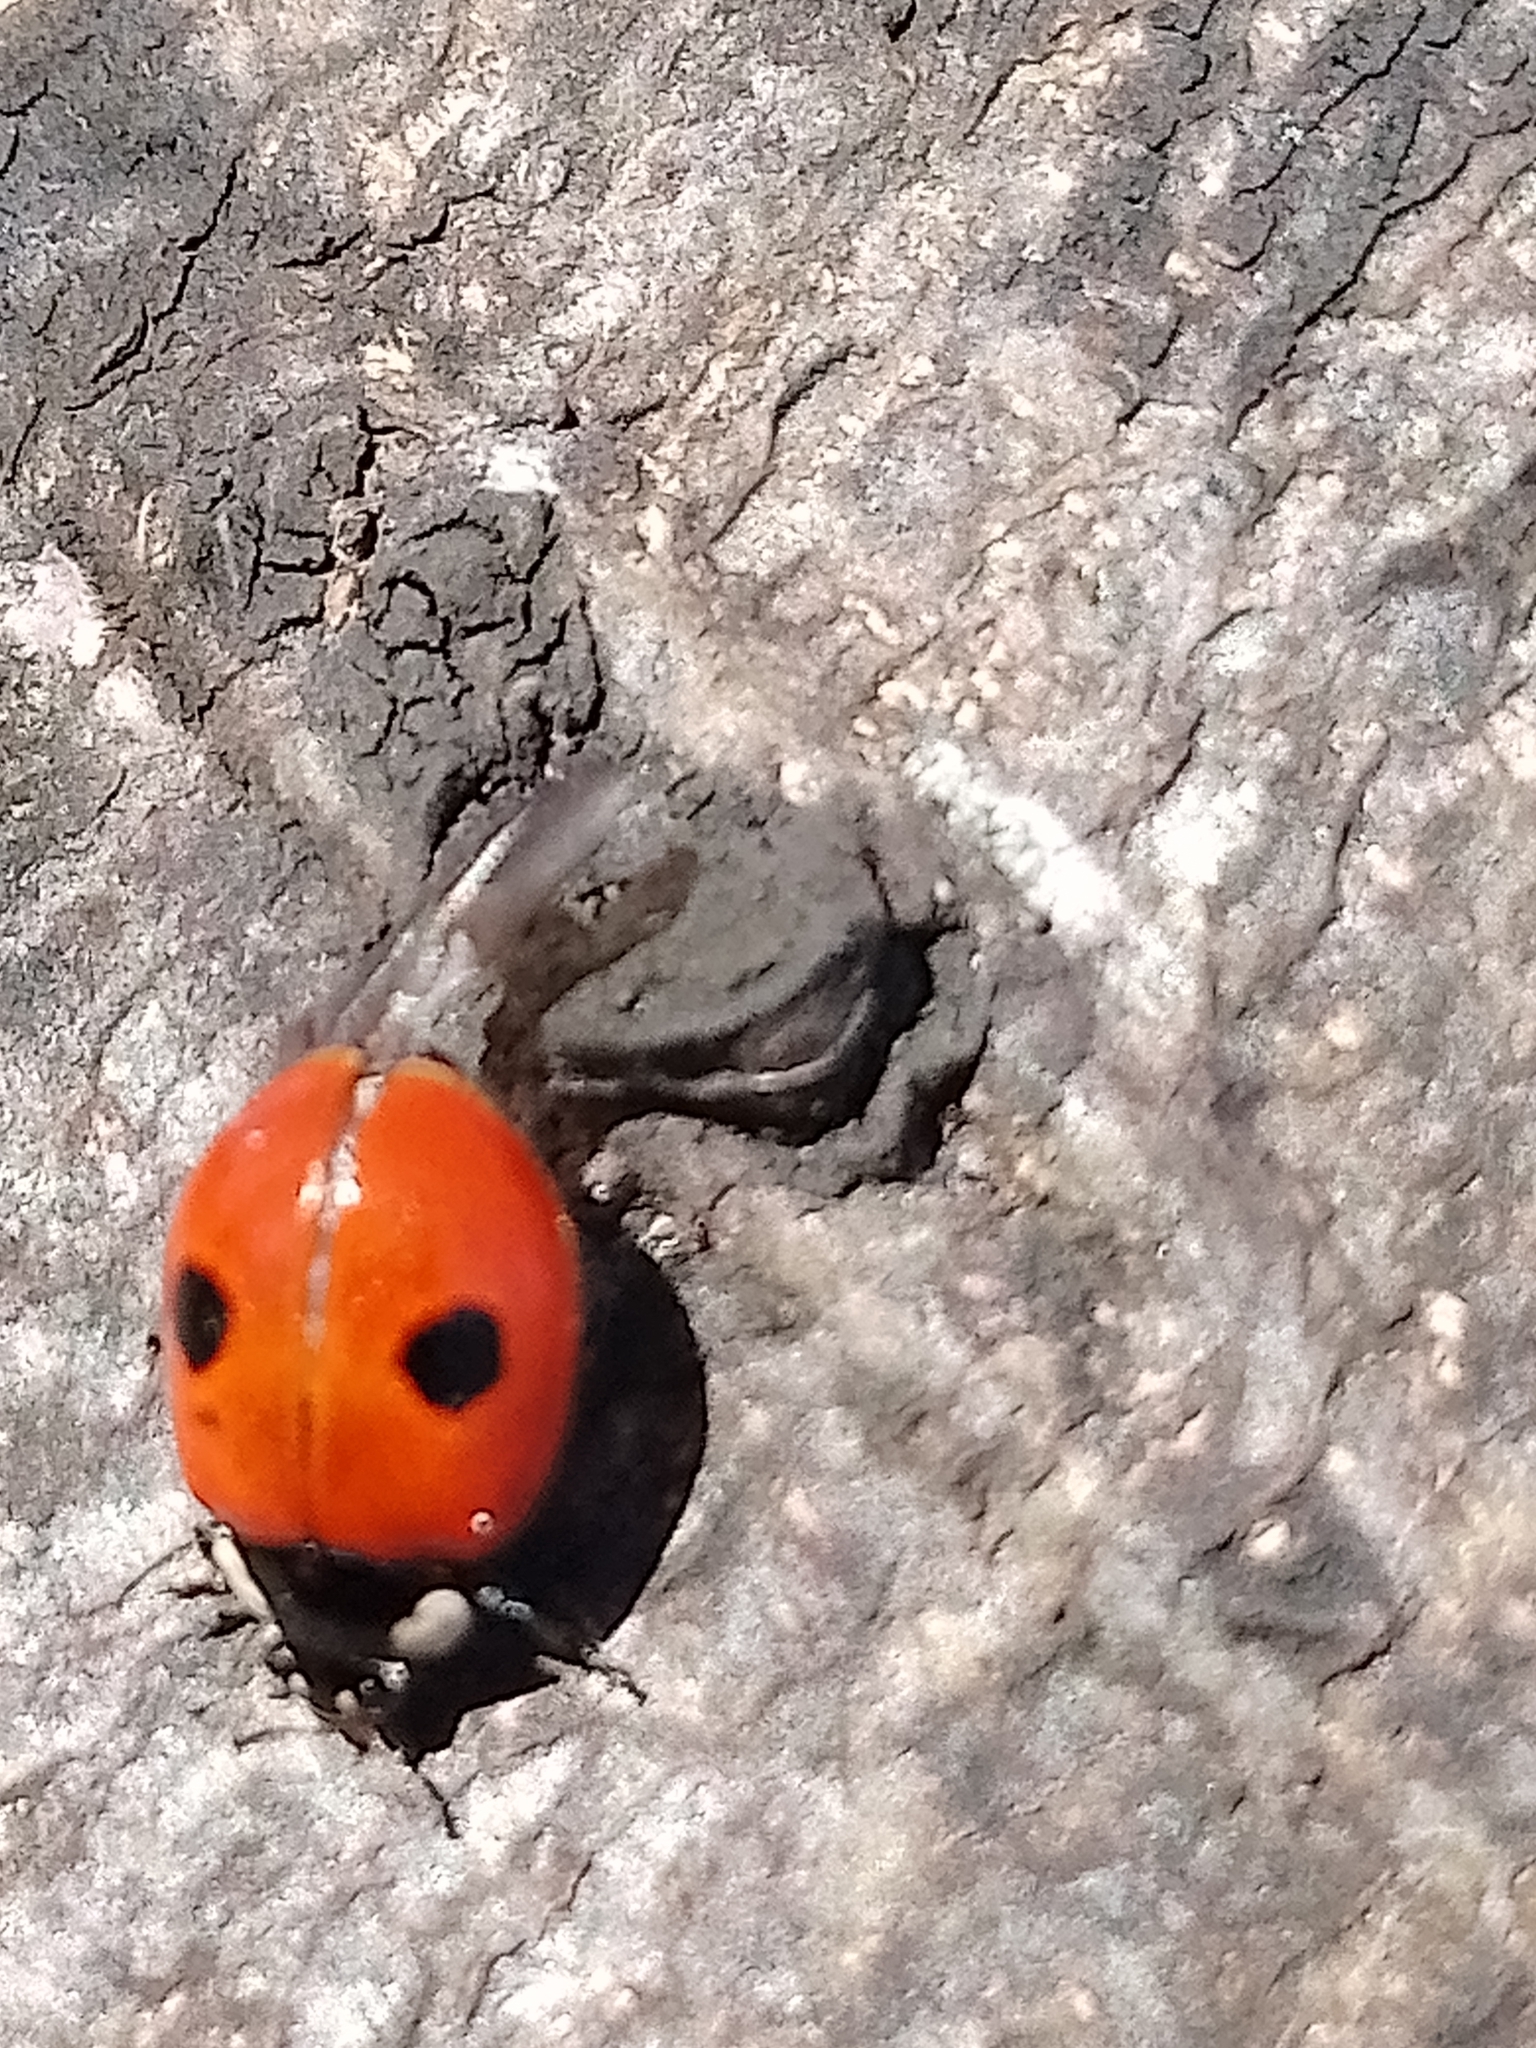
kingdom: Animalia
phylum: Arthropoda
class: Insecta
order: Coleoptera
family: Coccinellidae
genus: Adalia
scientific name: Adalia bipunctata
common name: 2-spot ladybird
